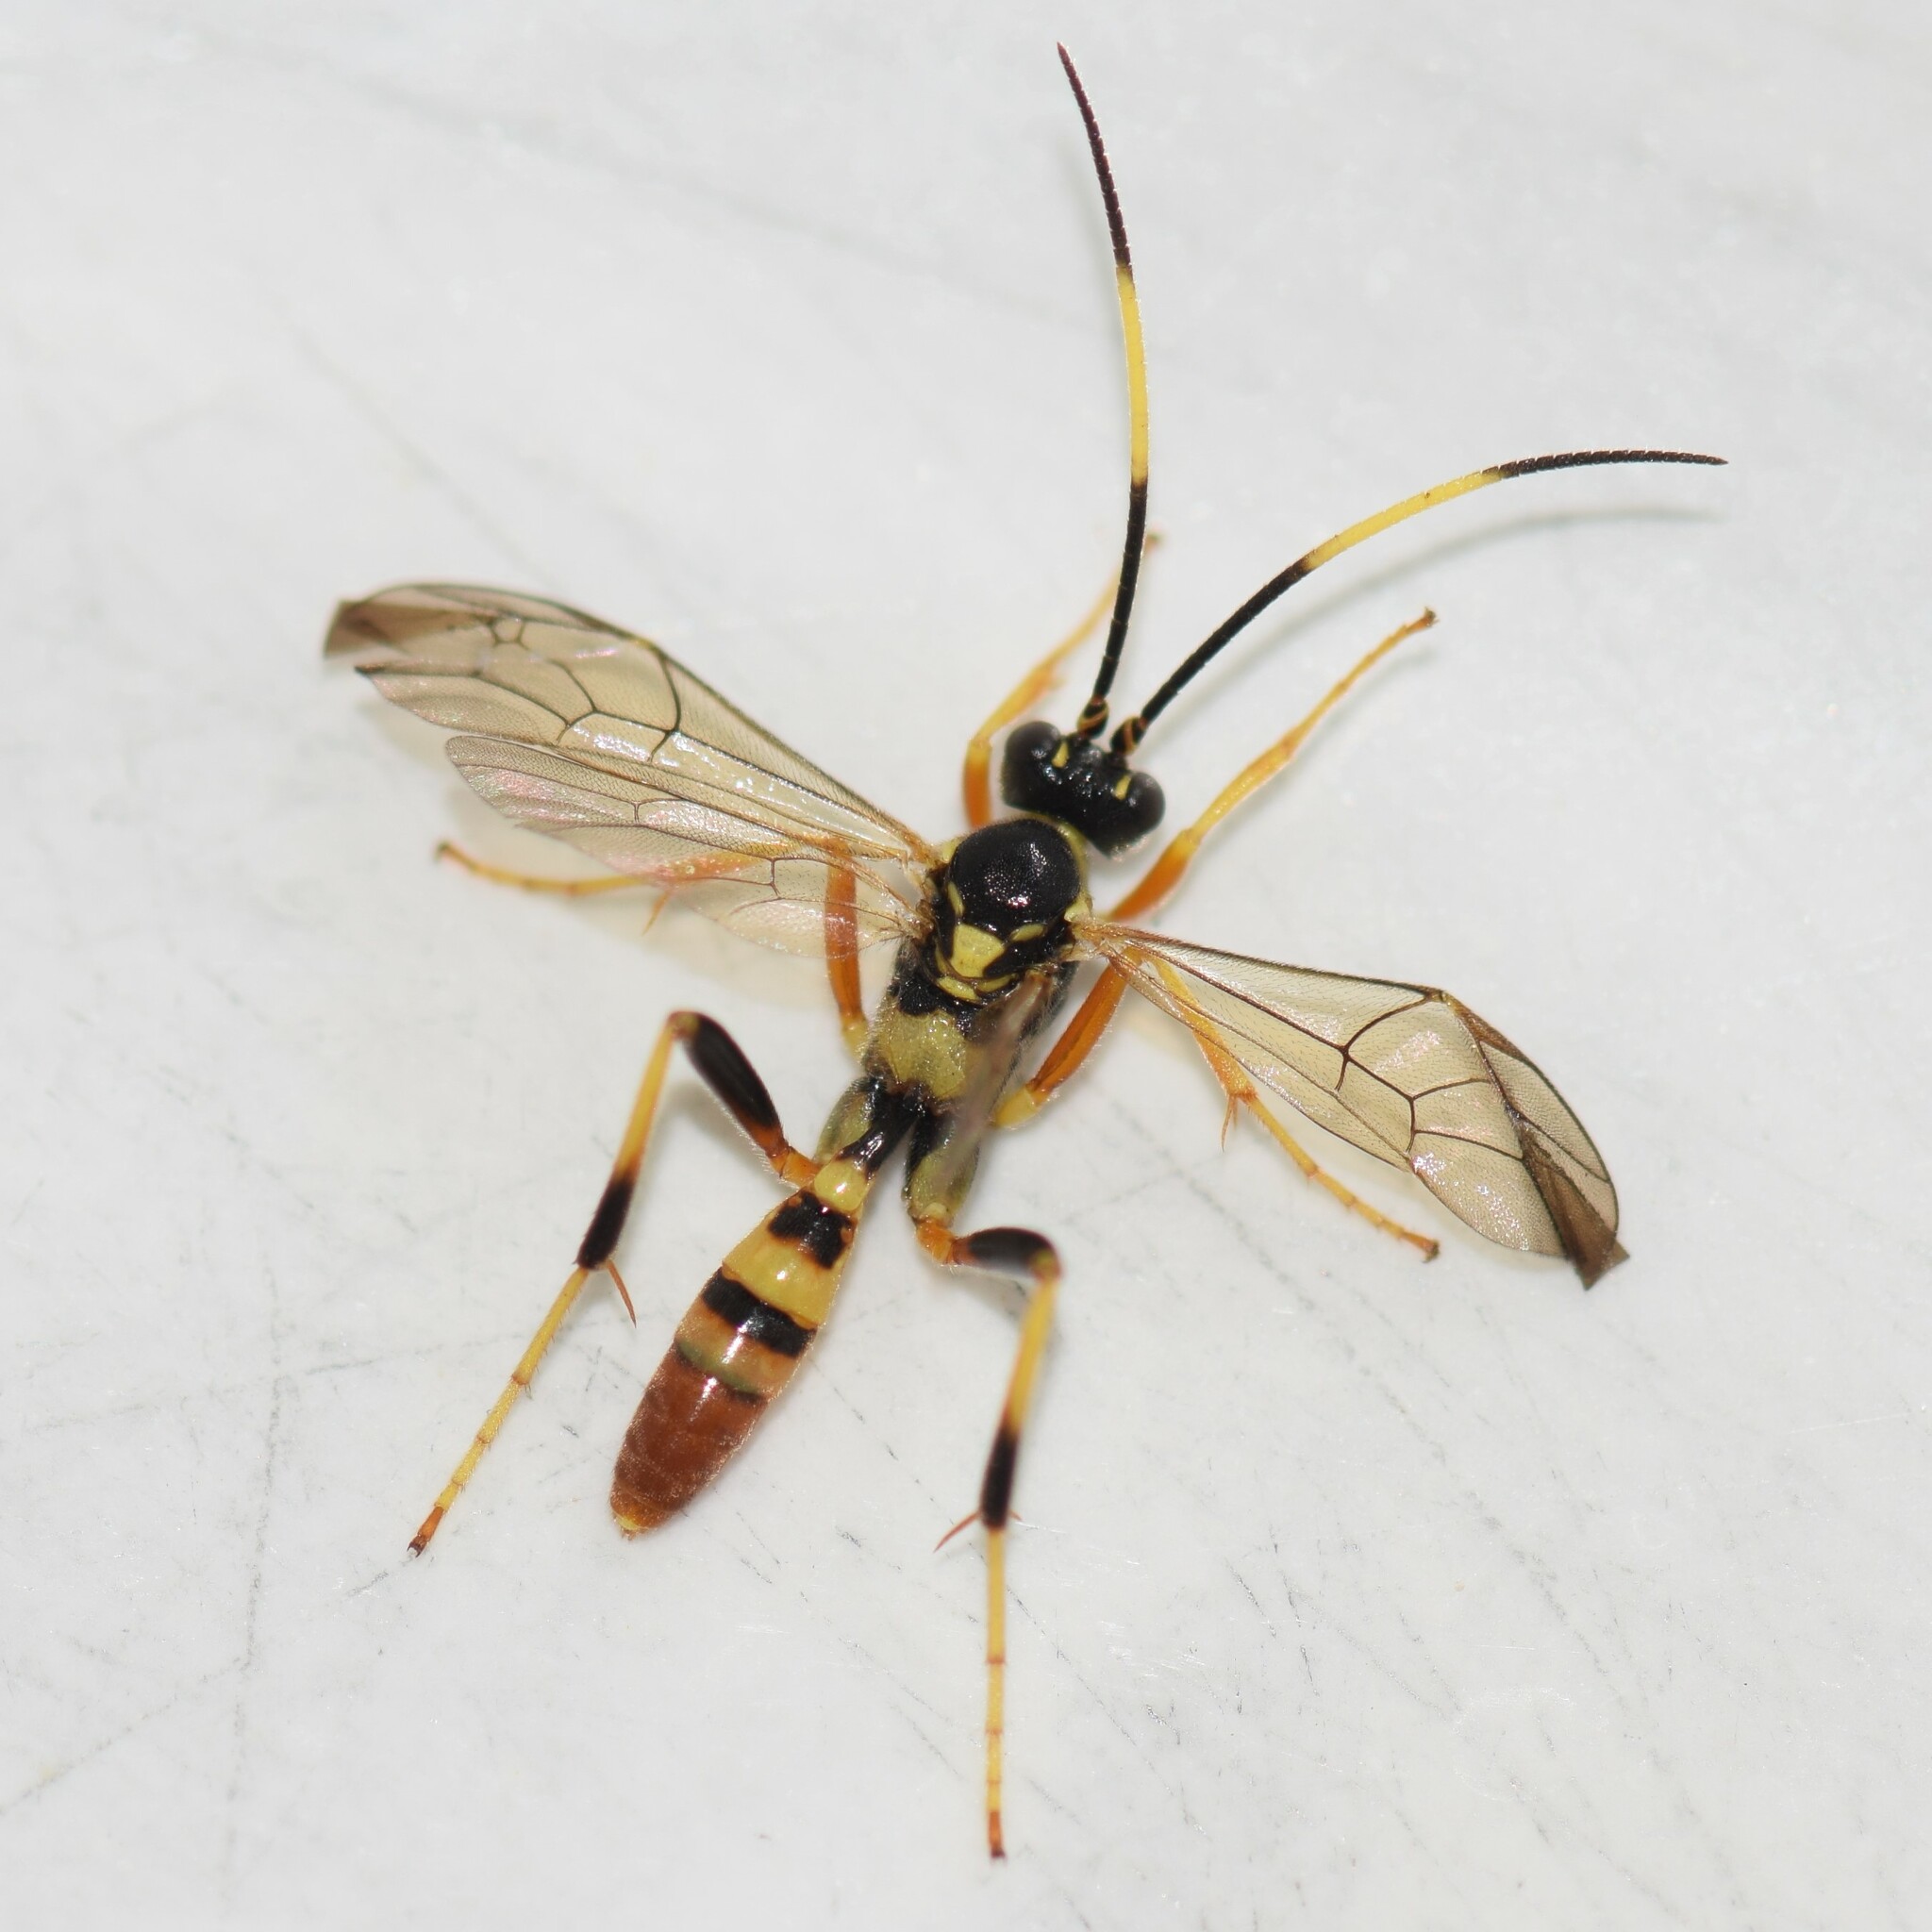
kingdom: Animalia
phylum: Arthropoda
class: Insecta
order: Hymenoptera
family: Ichneumonidae
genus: Polytribax
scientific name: Polytribax contiguus
